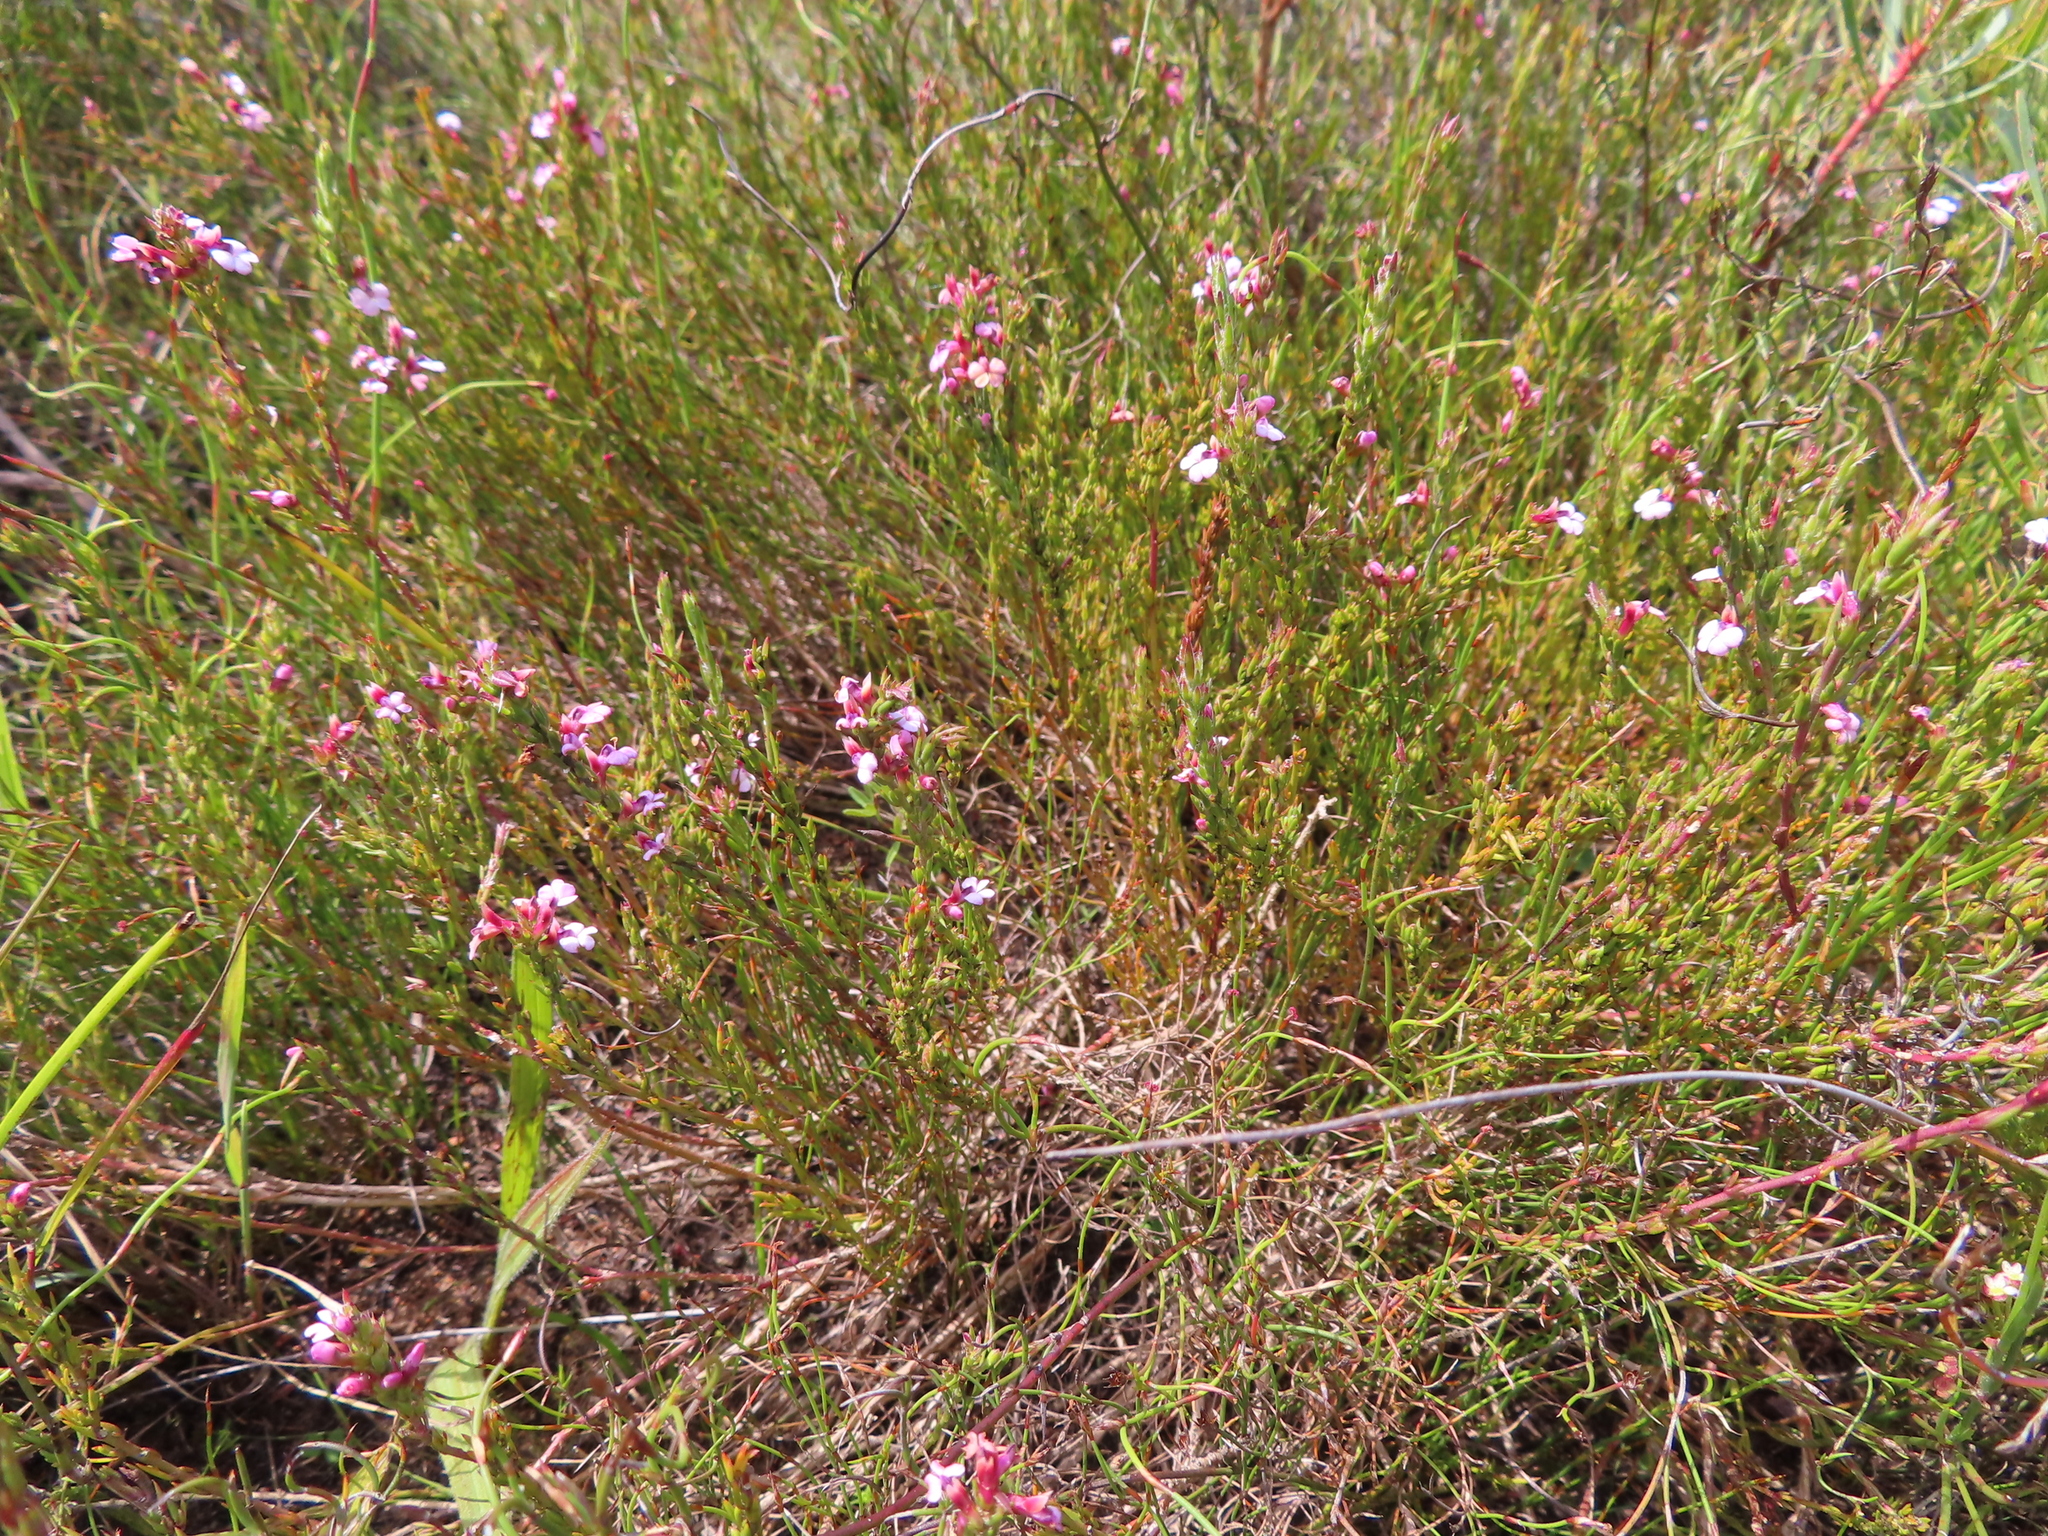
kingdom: Plantae
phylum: Tracheophyta
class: Magnoliopsida
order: Fabales
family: Polygalaceae
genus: Muraltia
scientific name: Muraltia ericoides
